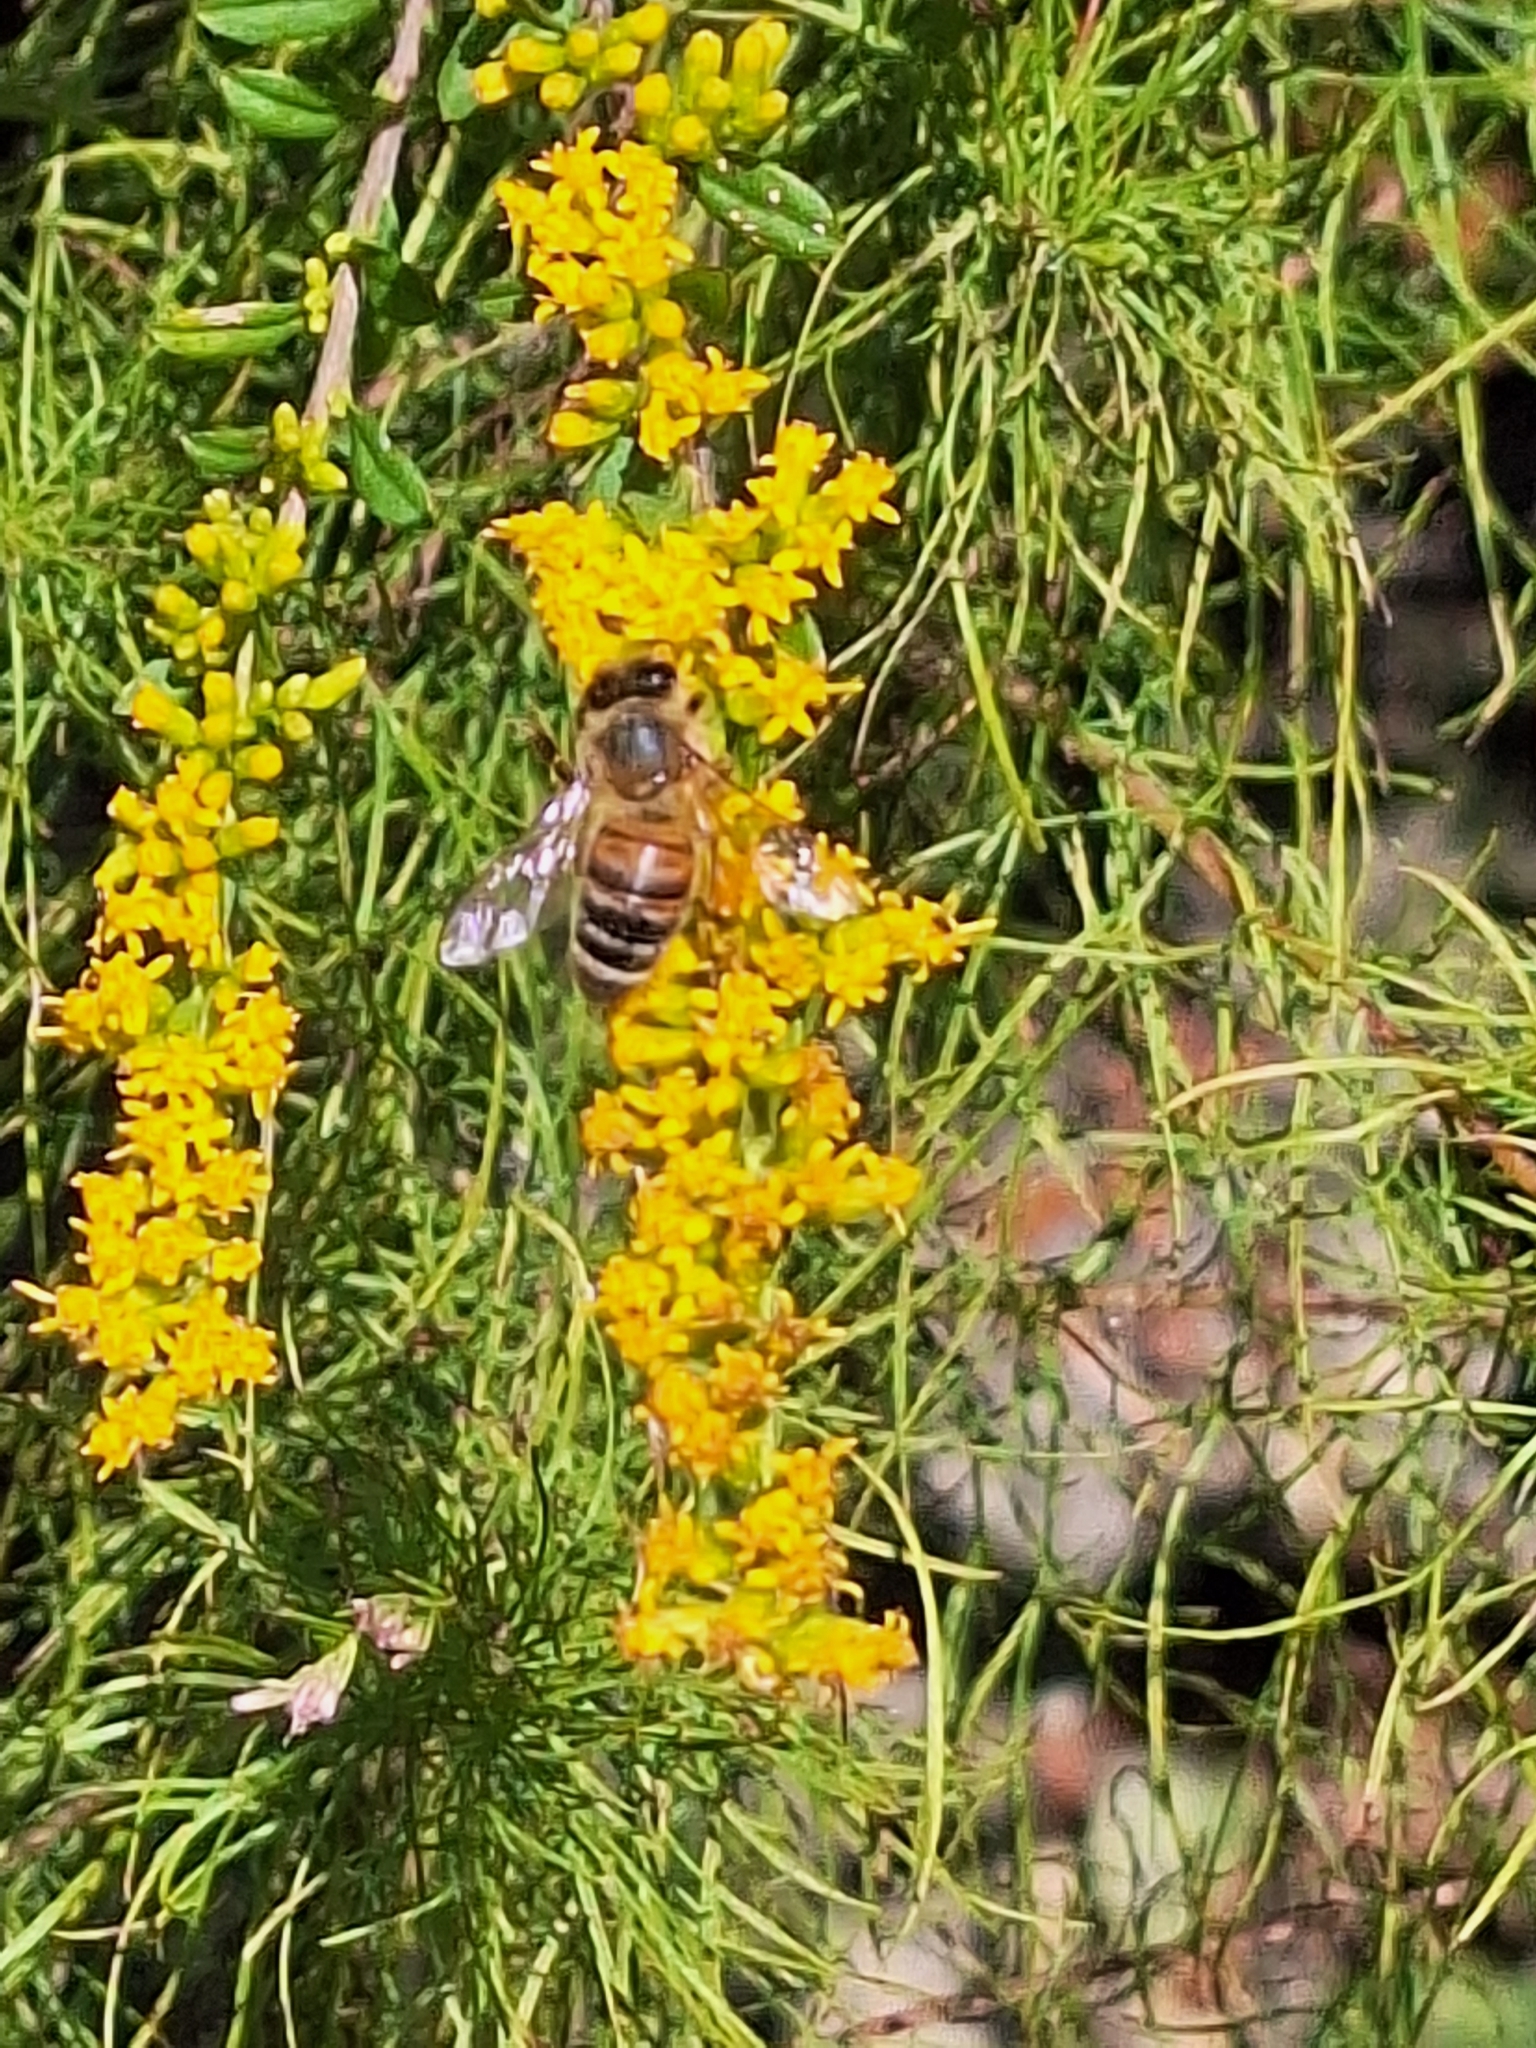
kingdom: Animalia
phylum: Arthropoda
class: Insecta
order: Hymenoptera
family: Apidae
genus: Apis
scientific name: Apis mellifera
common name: Honey bee
